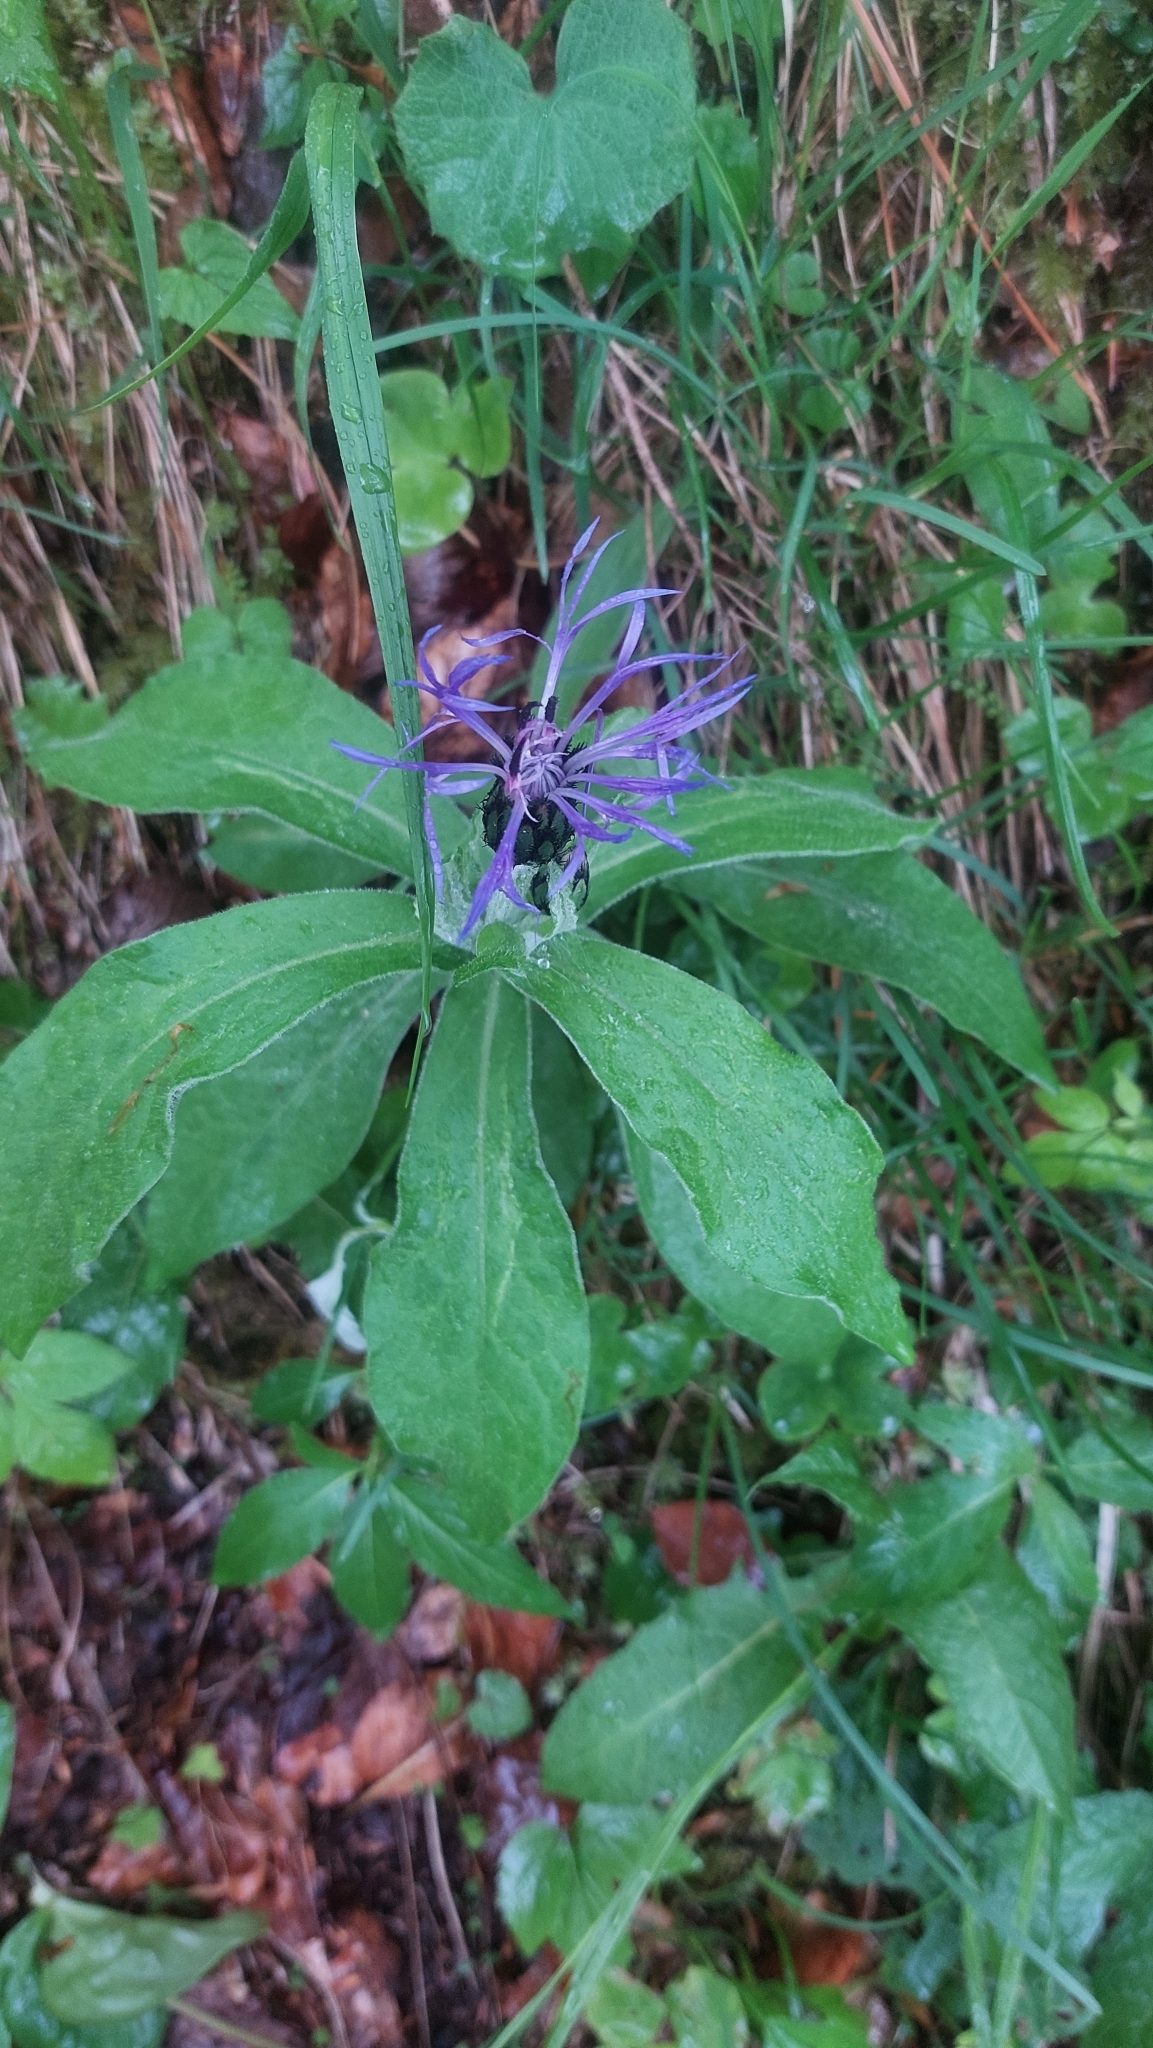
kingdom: Plantae
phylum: Tracheophyta
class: Magnoliopsida
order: Asterales
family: Asteraceae
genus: Centaurea
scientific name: Centaurea montana
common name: Perennial cornflower
